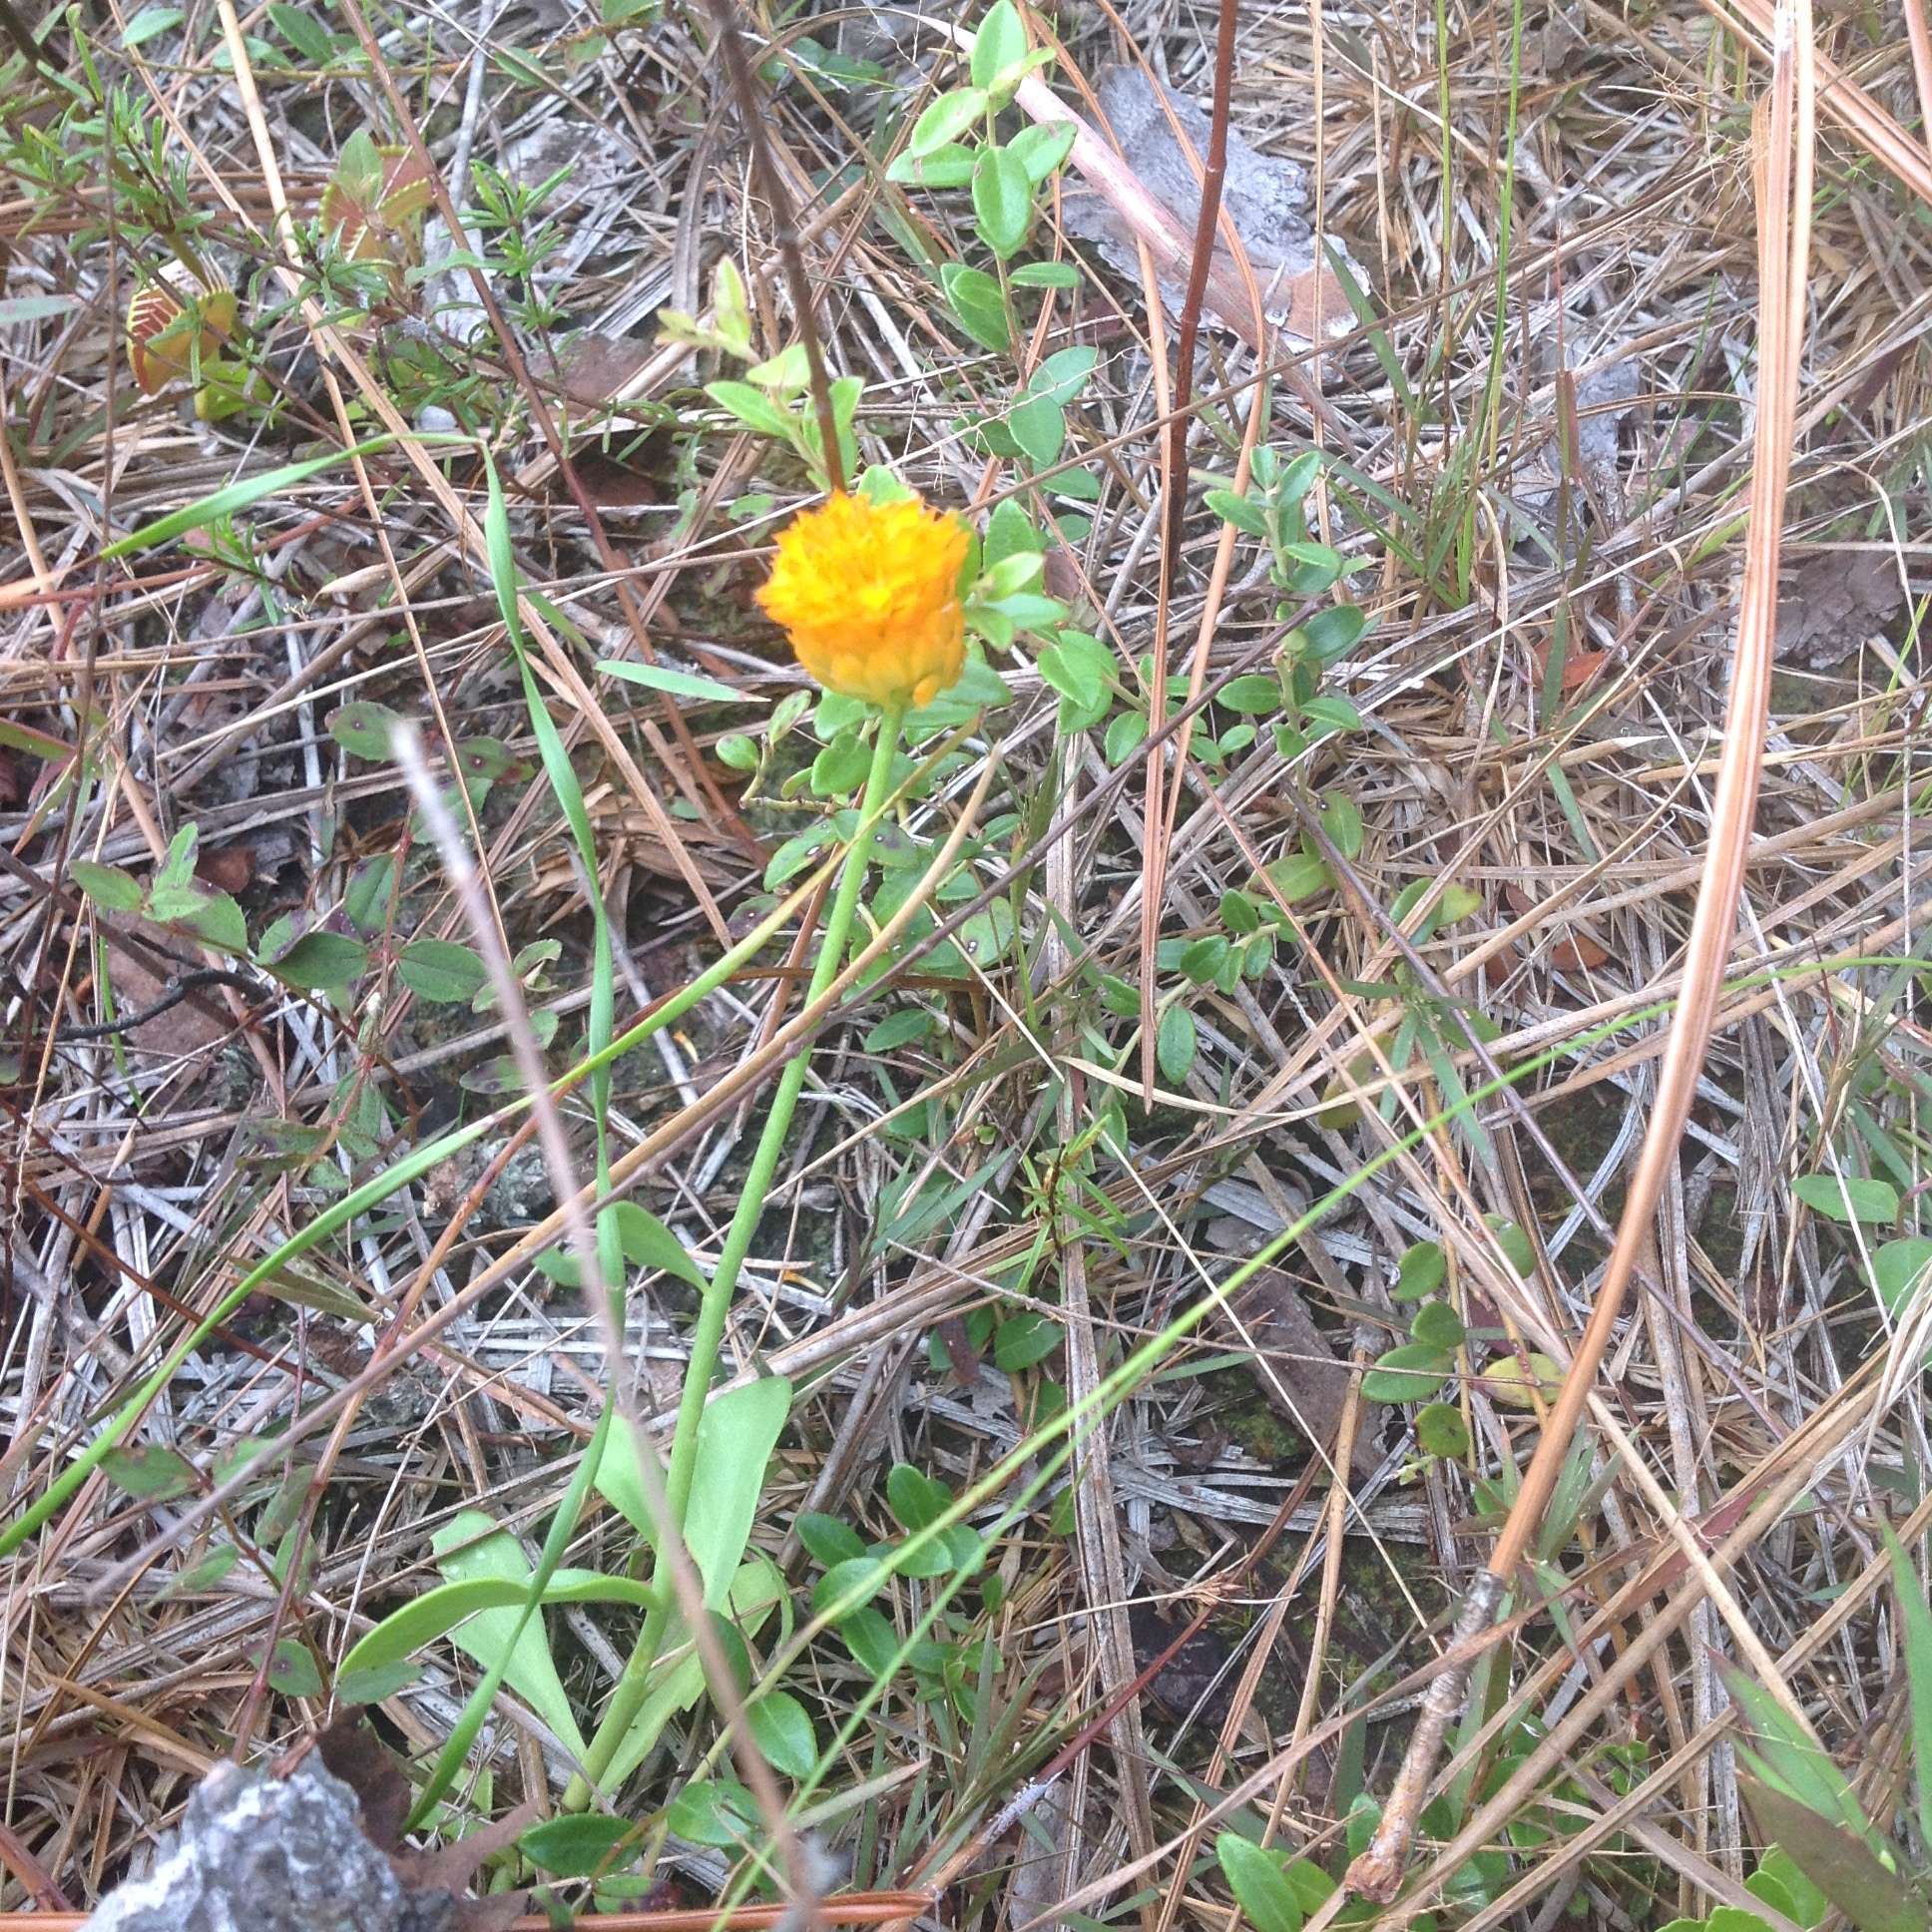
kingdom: Plantae
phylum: Tracheophyta
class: Magnoliopsida
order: Fabales
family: Polygalaceae
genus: Polygala
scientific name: Polygala lutea
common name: Orange milkwort
